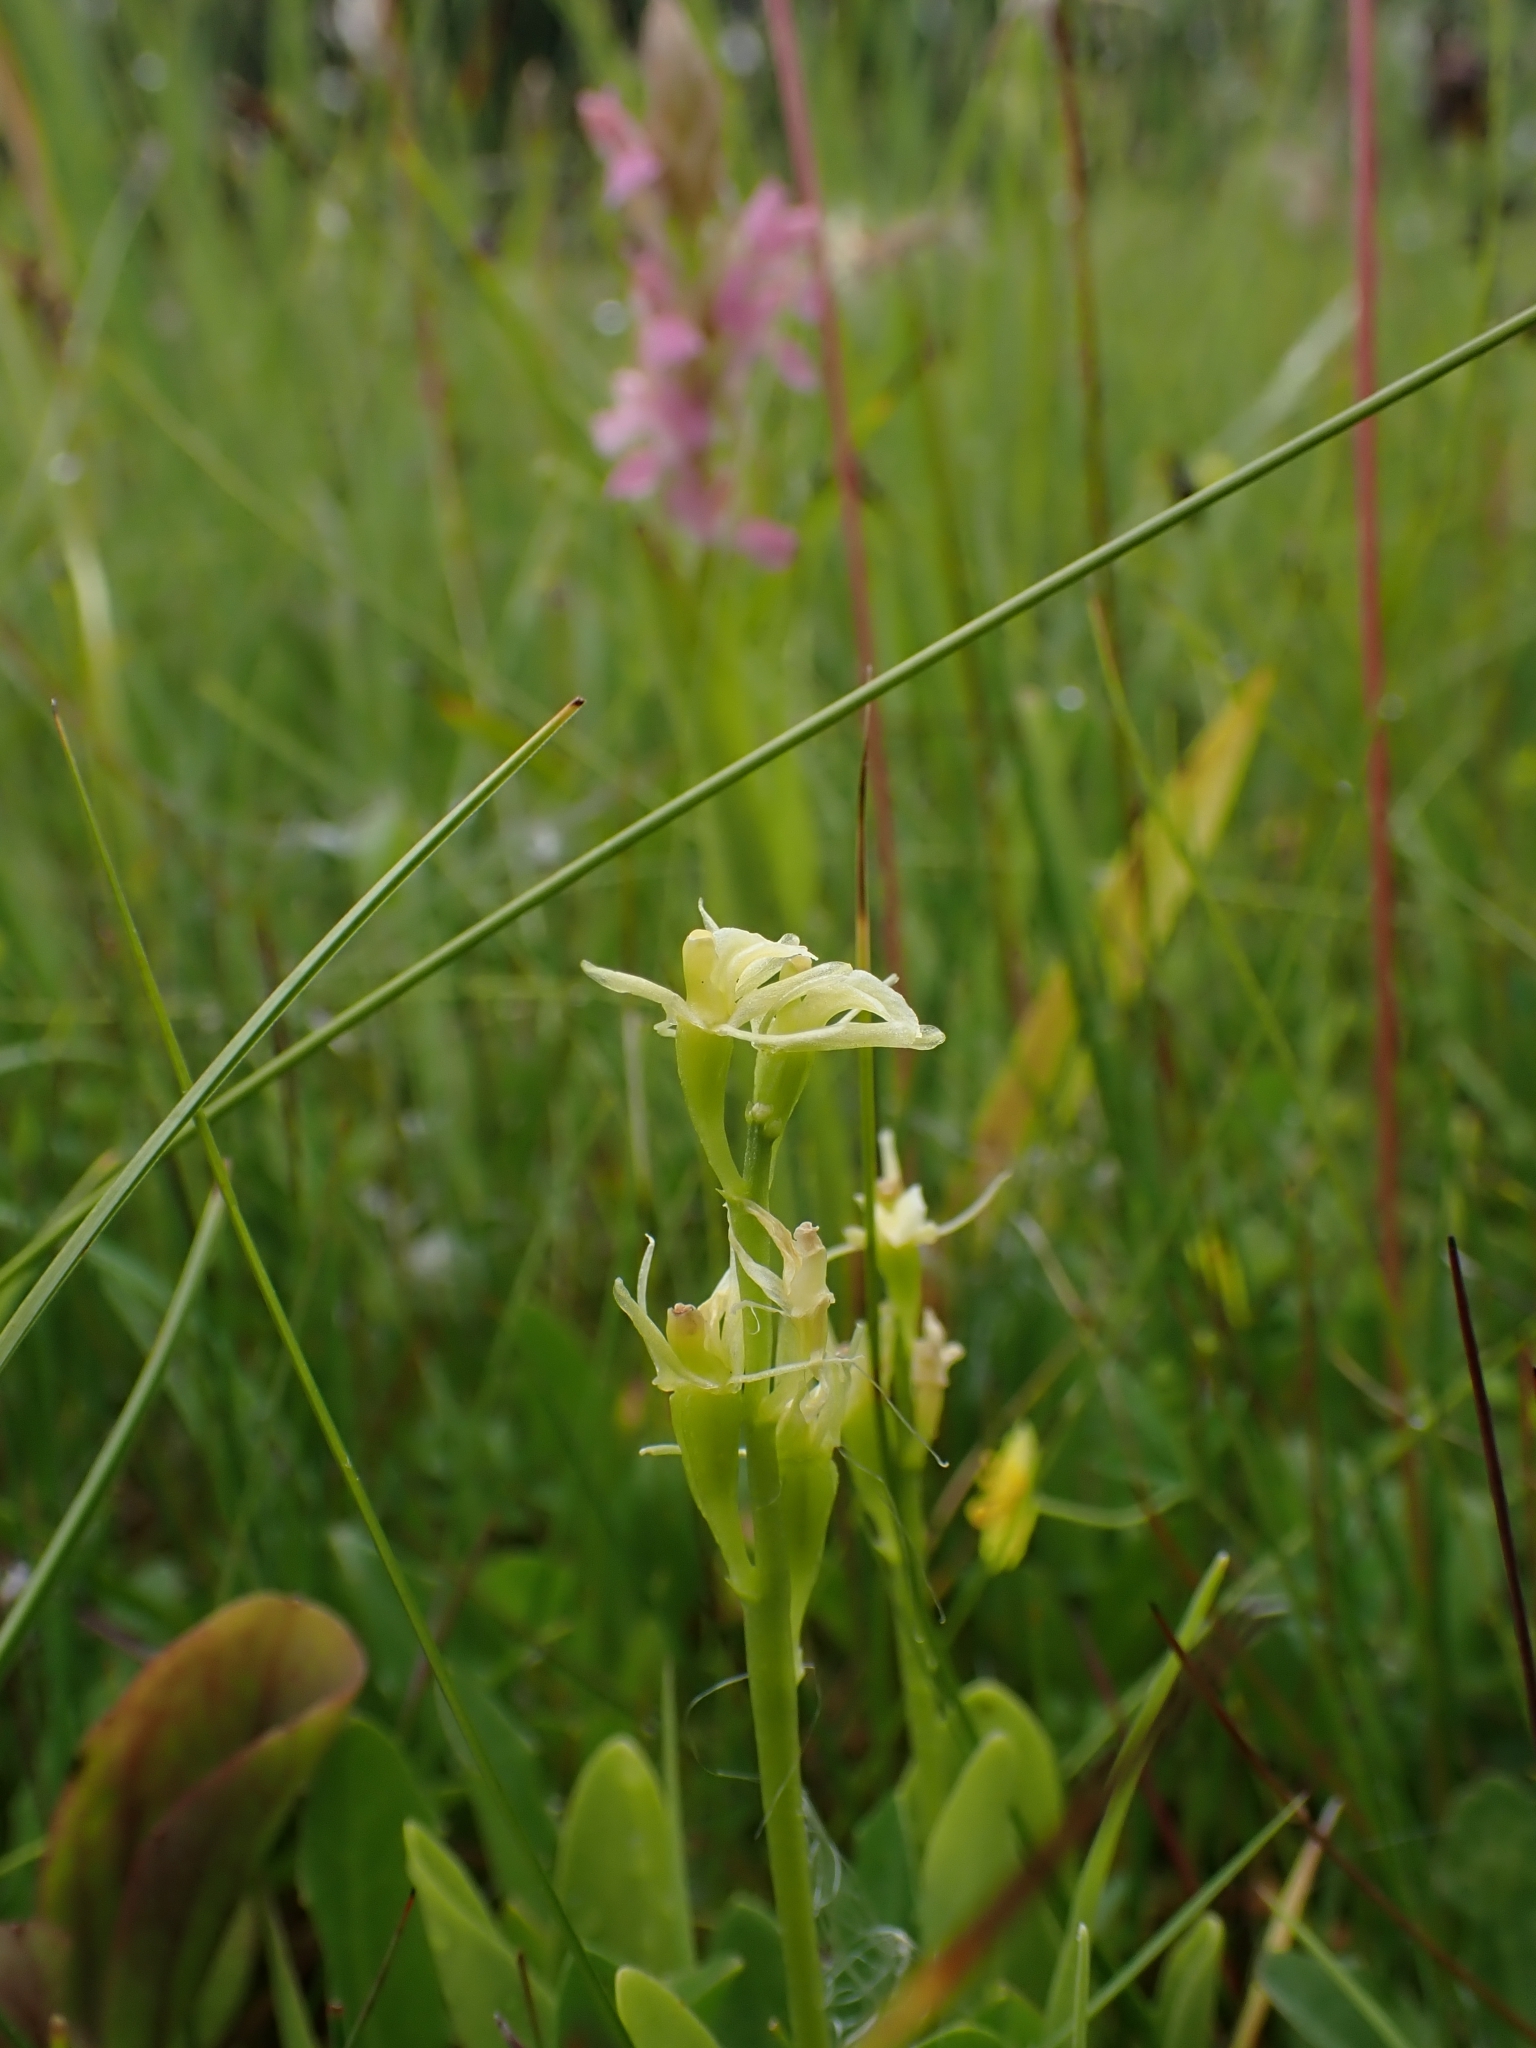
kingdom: Animalia
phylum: Arthropoda
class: Insecta
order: Coleoptera
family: Curculionidae
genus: Liparis
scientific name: Liparis loeselii
